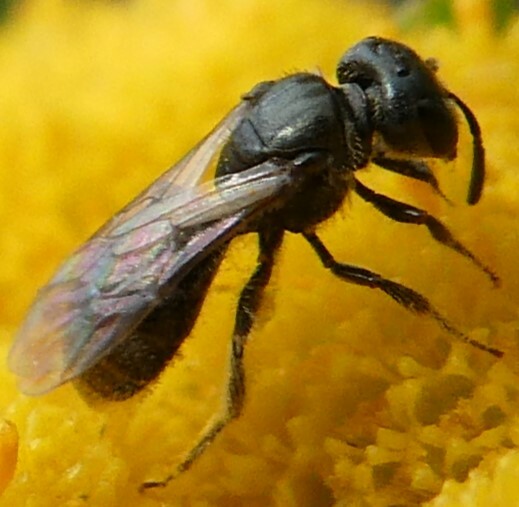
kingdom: Animalia
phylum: Arthropoda
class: Insecta
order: Hymenoptera
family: Halictidae
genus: Lasioglossum
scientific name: Lasioglossum
